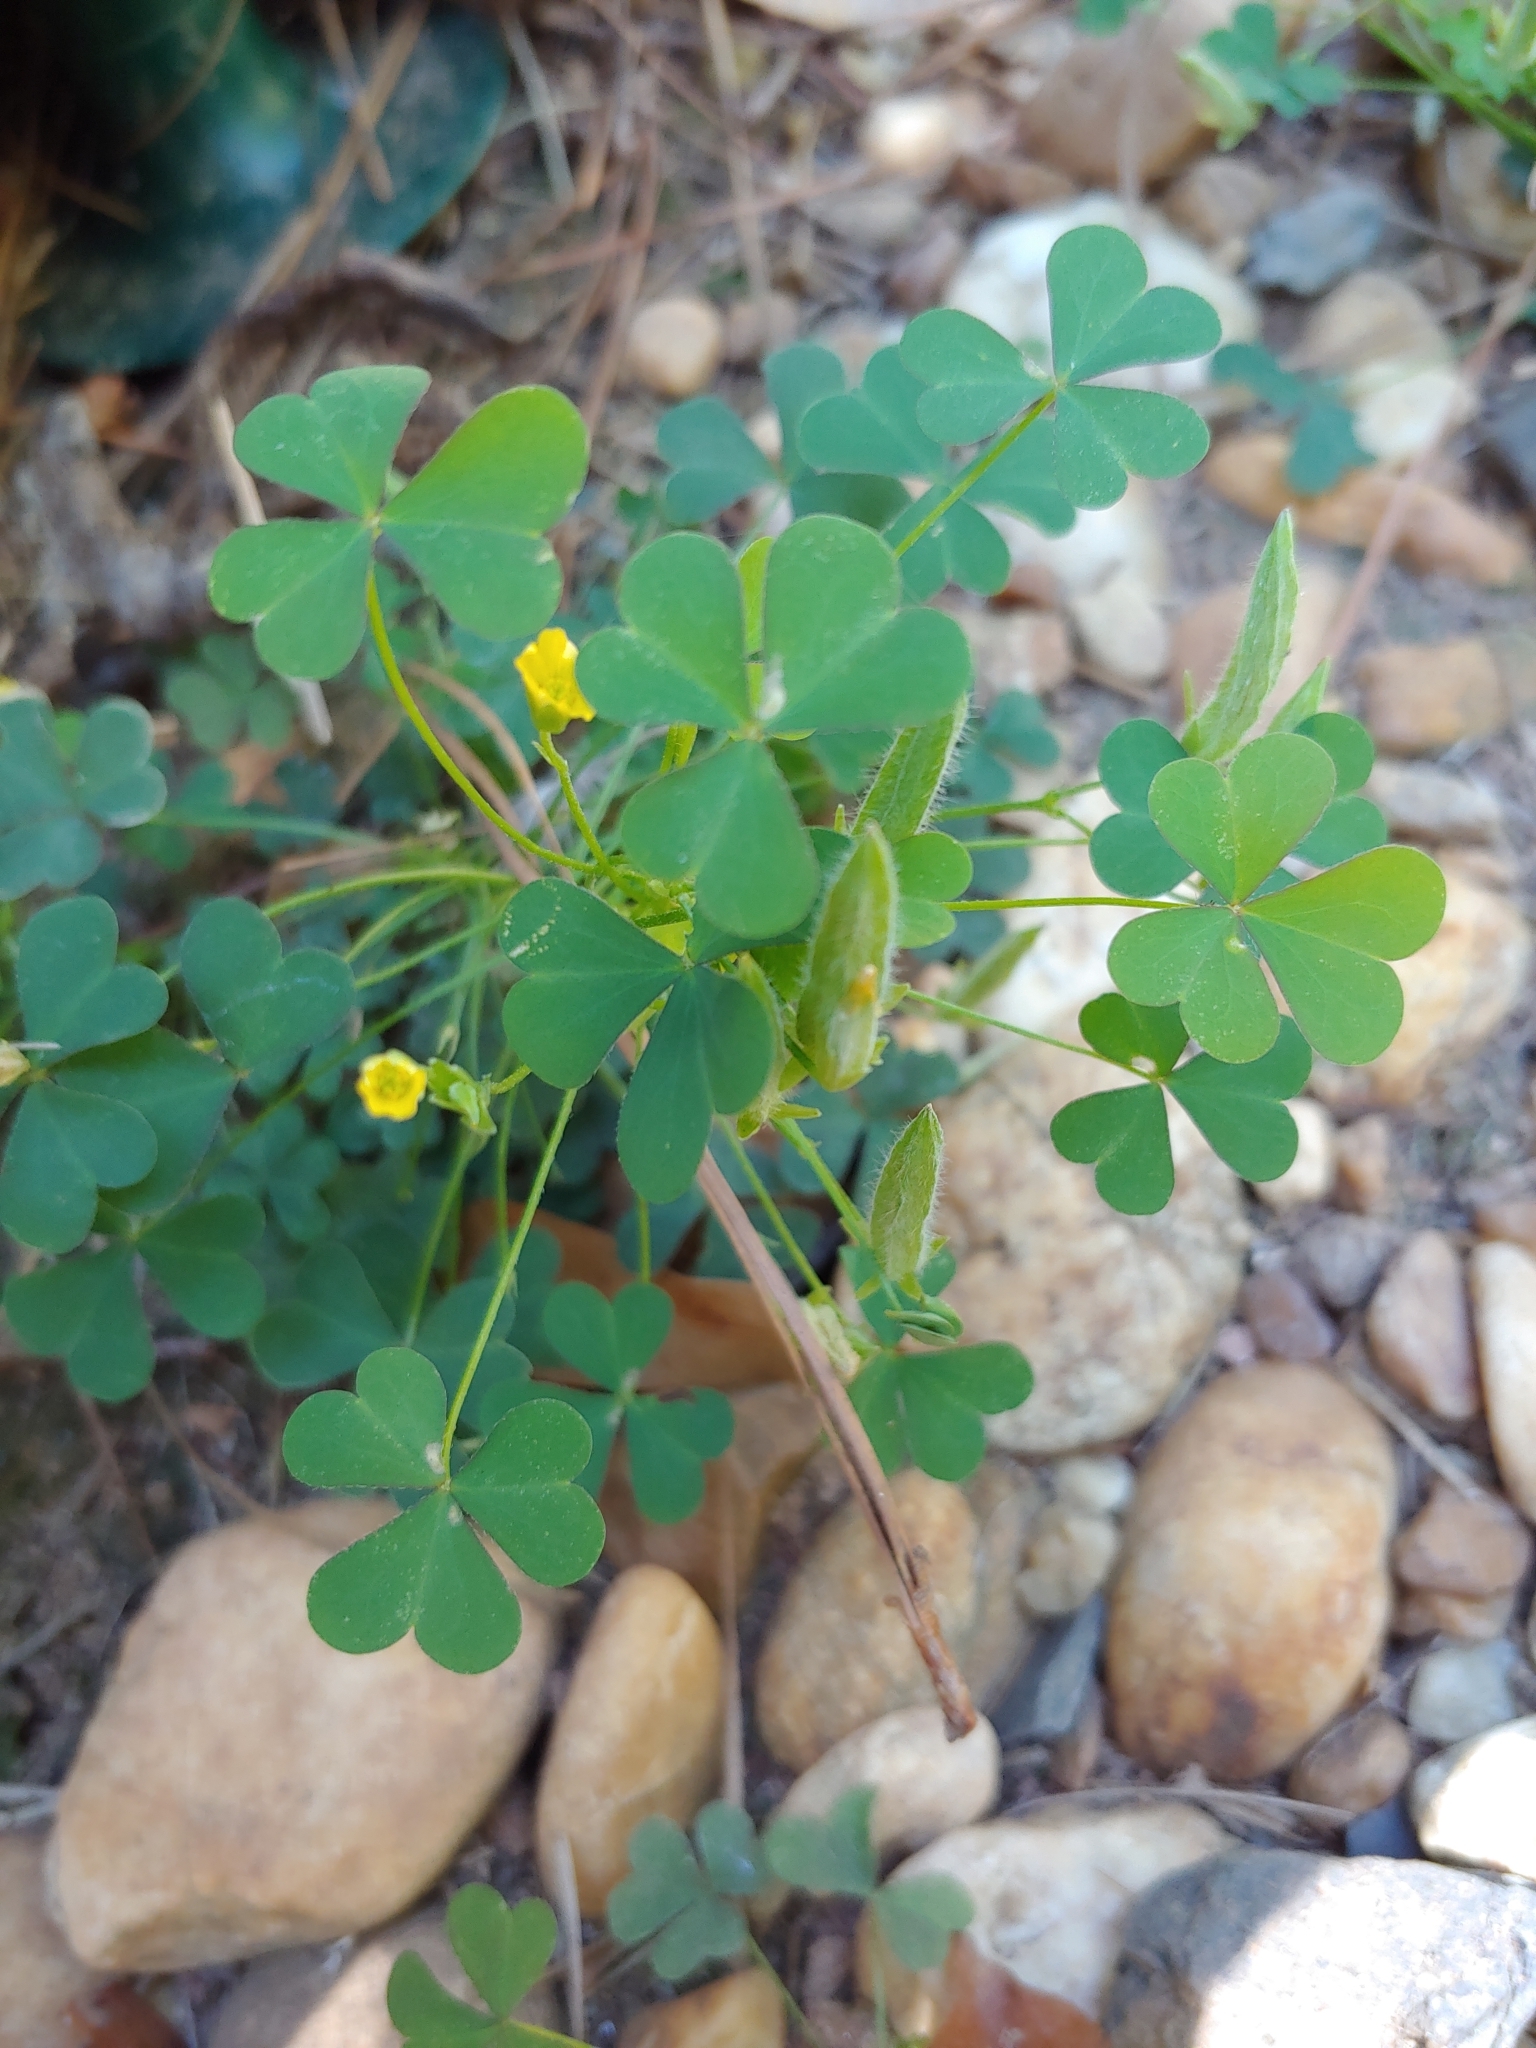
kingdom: Plantae
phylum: Tracheophyta
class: Magnoliopsida
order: Oxalidales
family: Oxalidaceae
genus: Oxalis
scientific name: Oxalis dillenii
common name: Sussex yellow-sorrel
